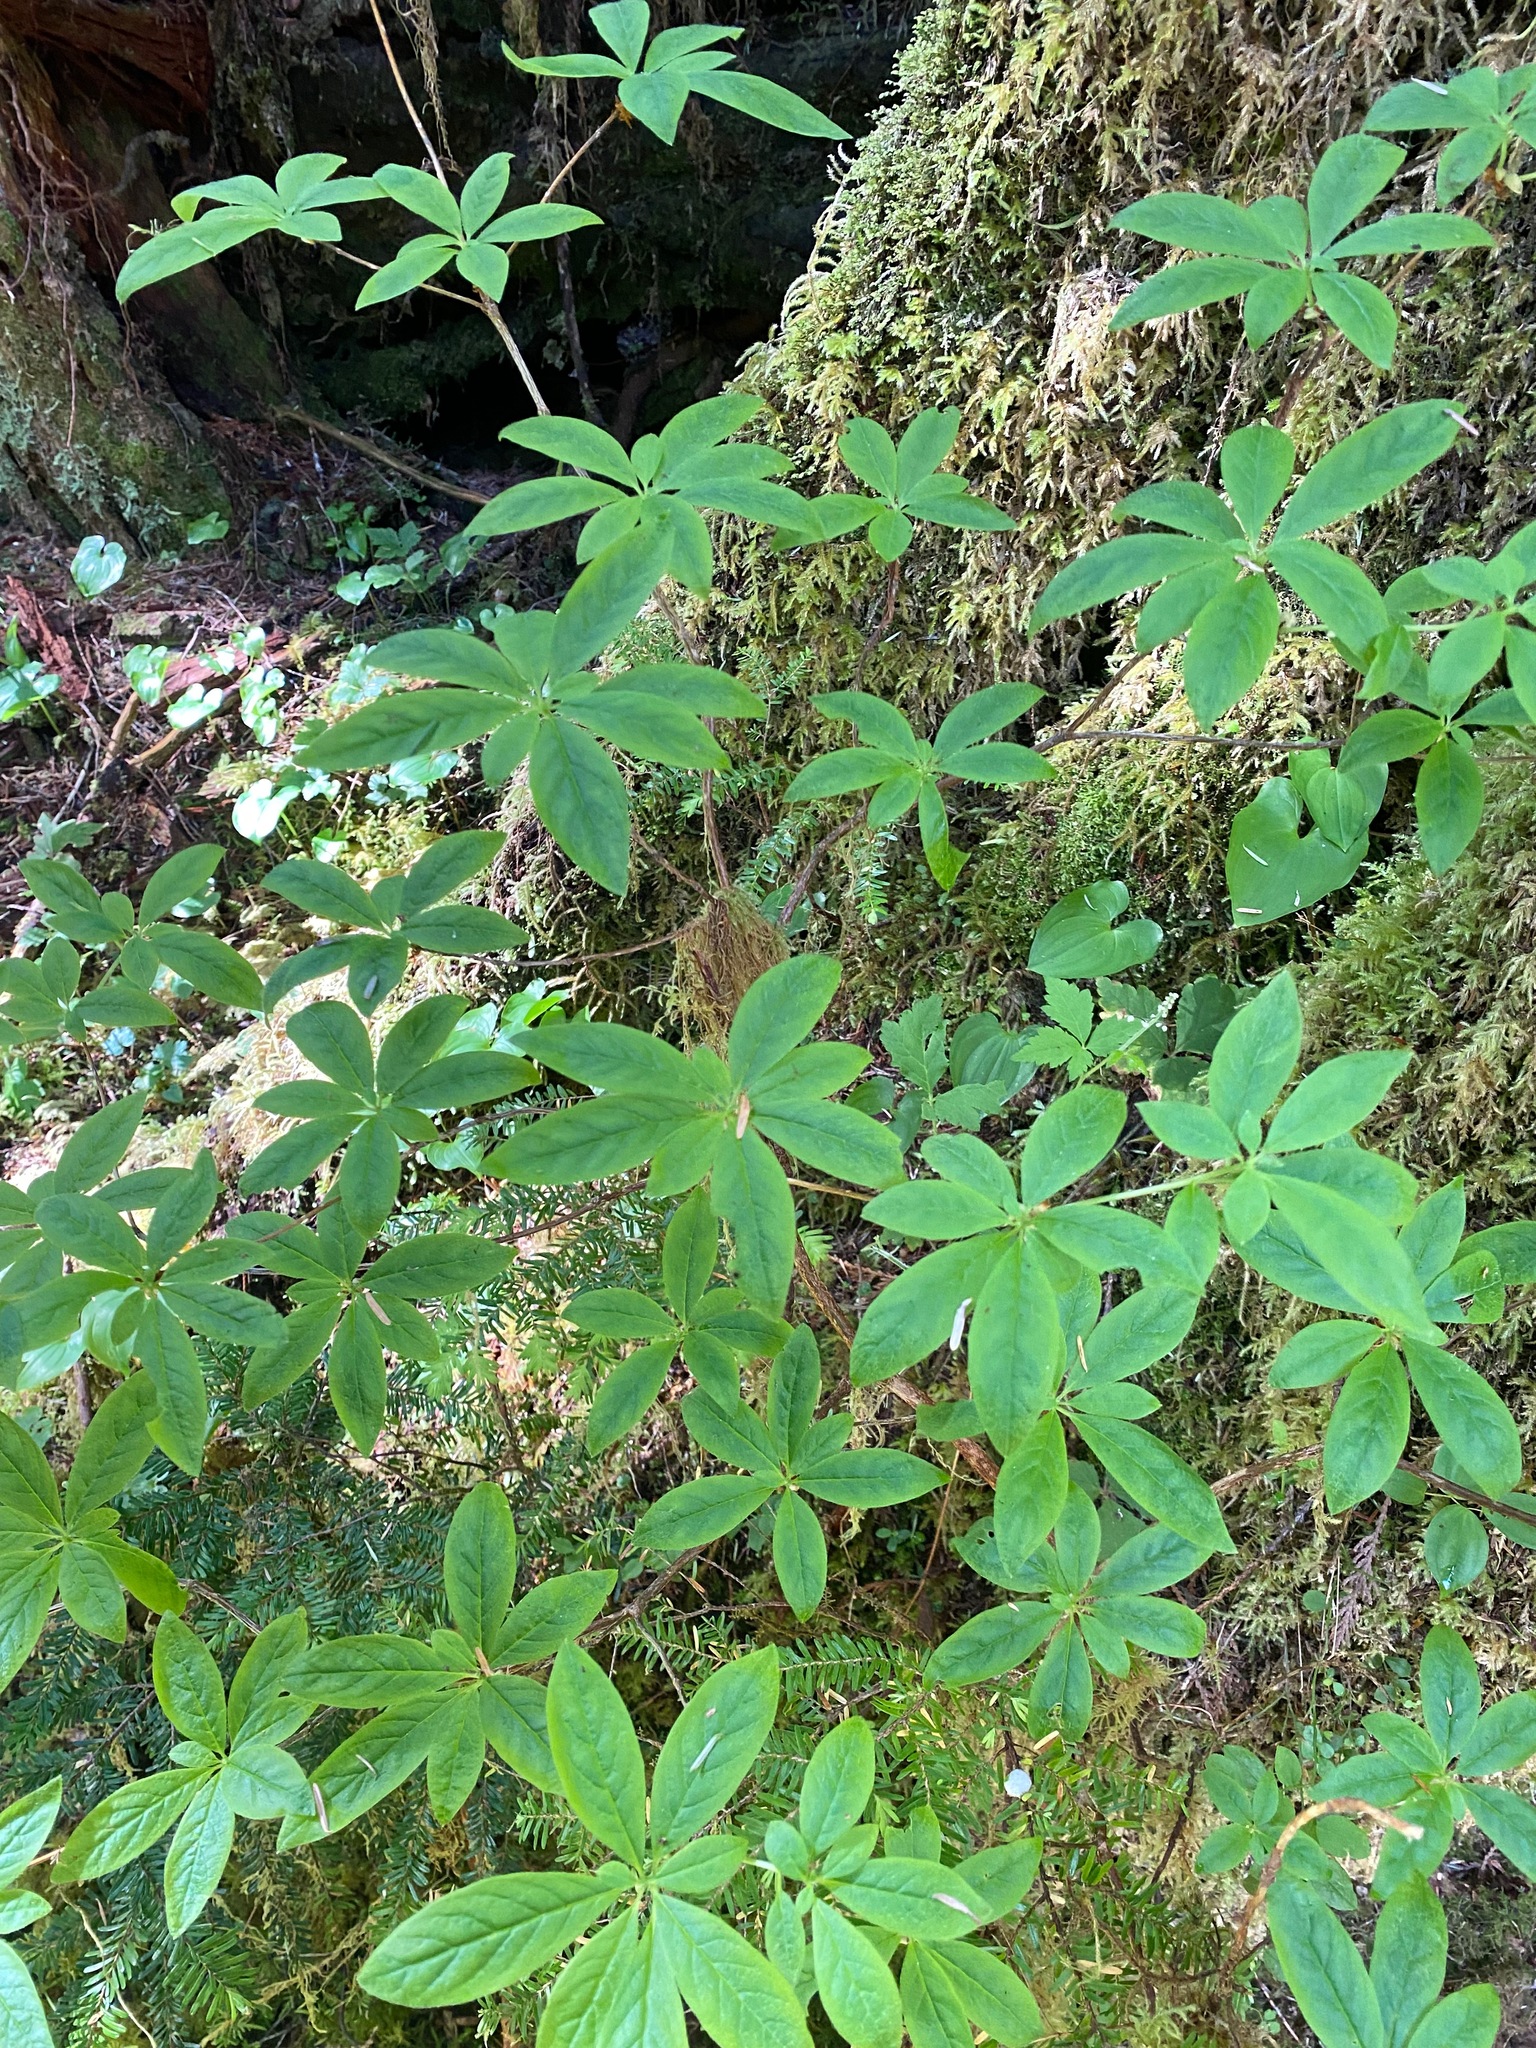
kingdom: Plantae
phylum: Tracheophyta
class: Magnoliopsida
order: Ericales
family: Ericaceae
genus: Rhododendron
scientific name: Rhododendron menziesii
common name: Pacific menziesia
